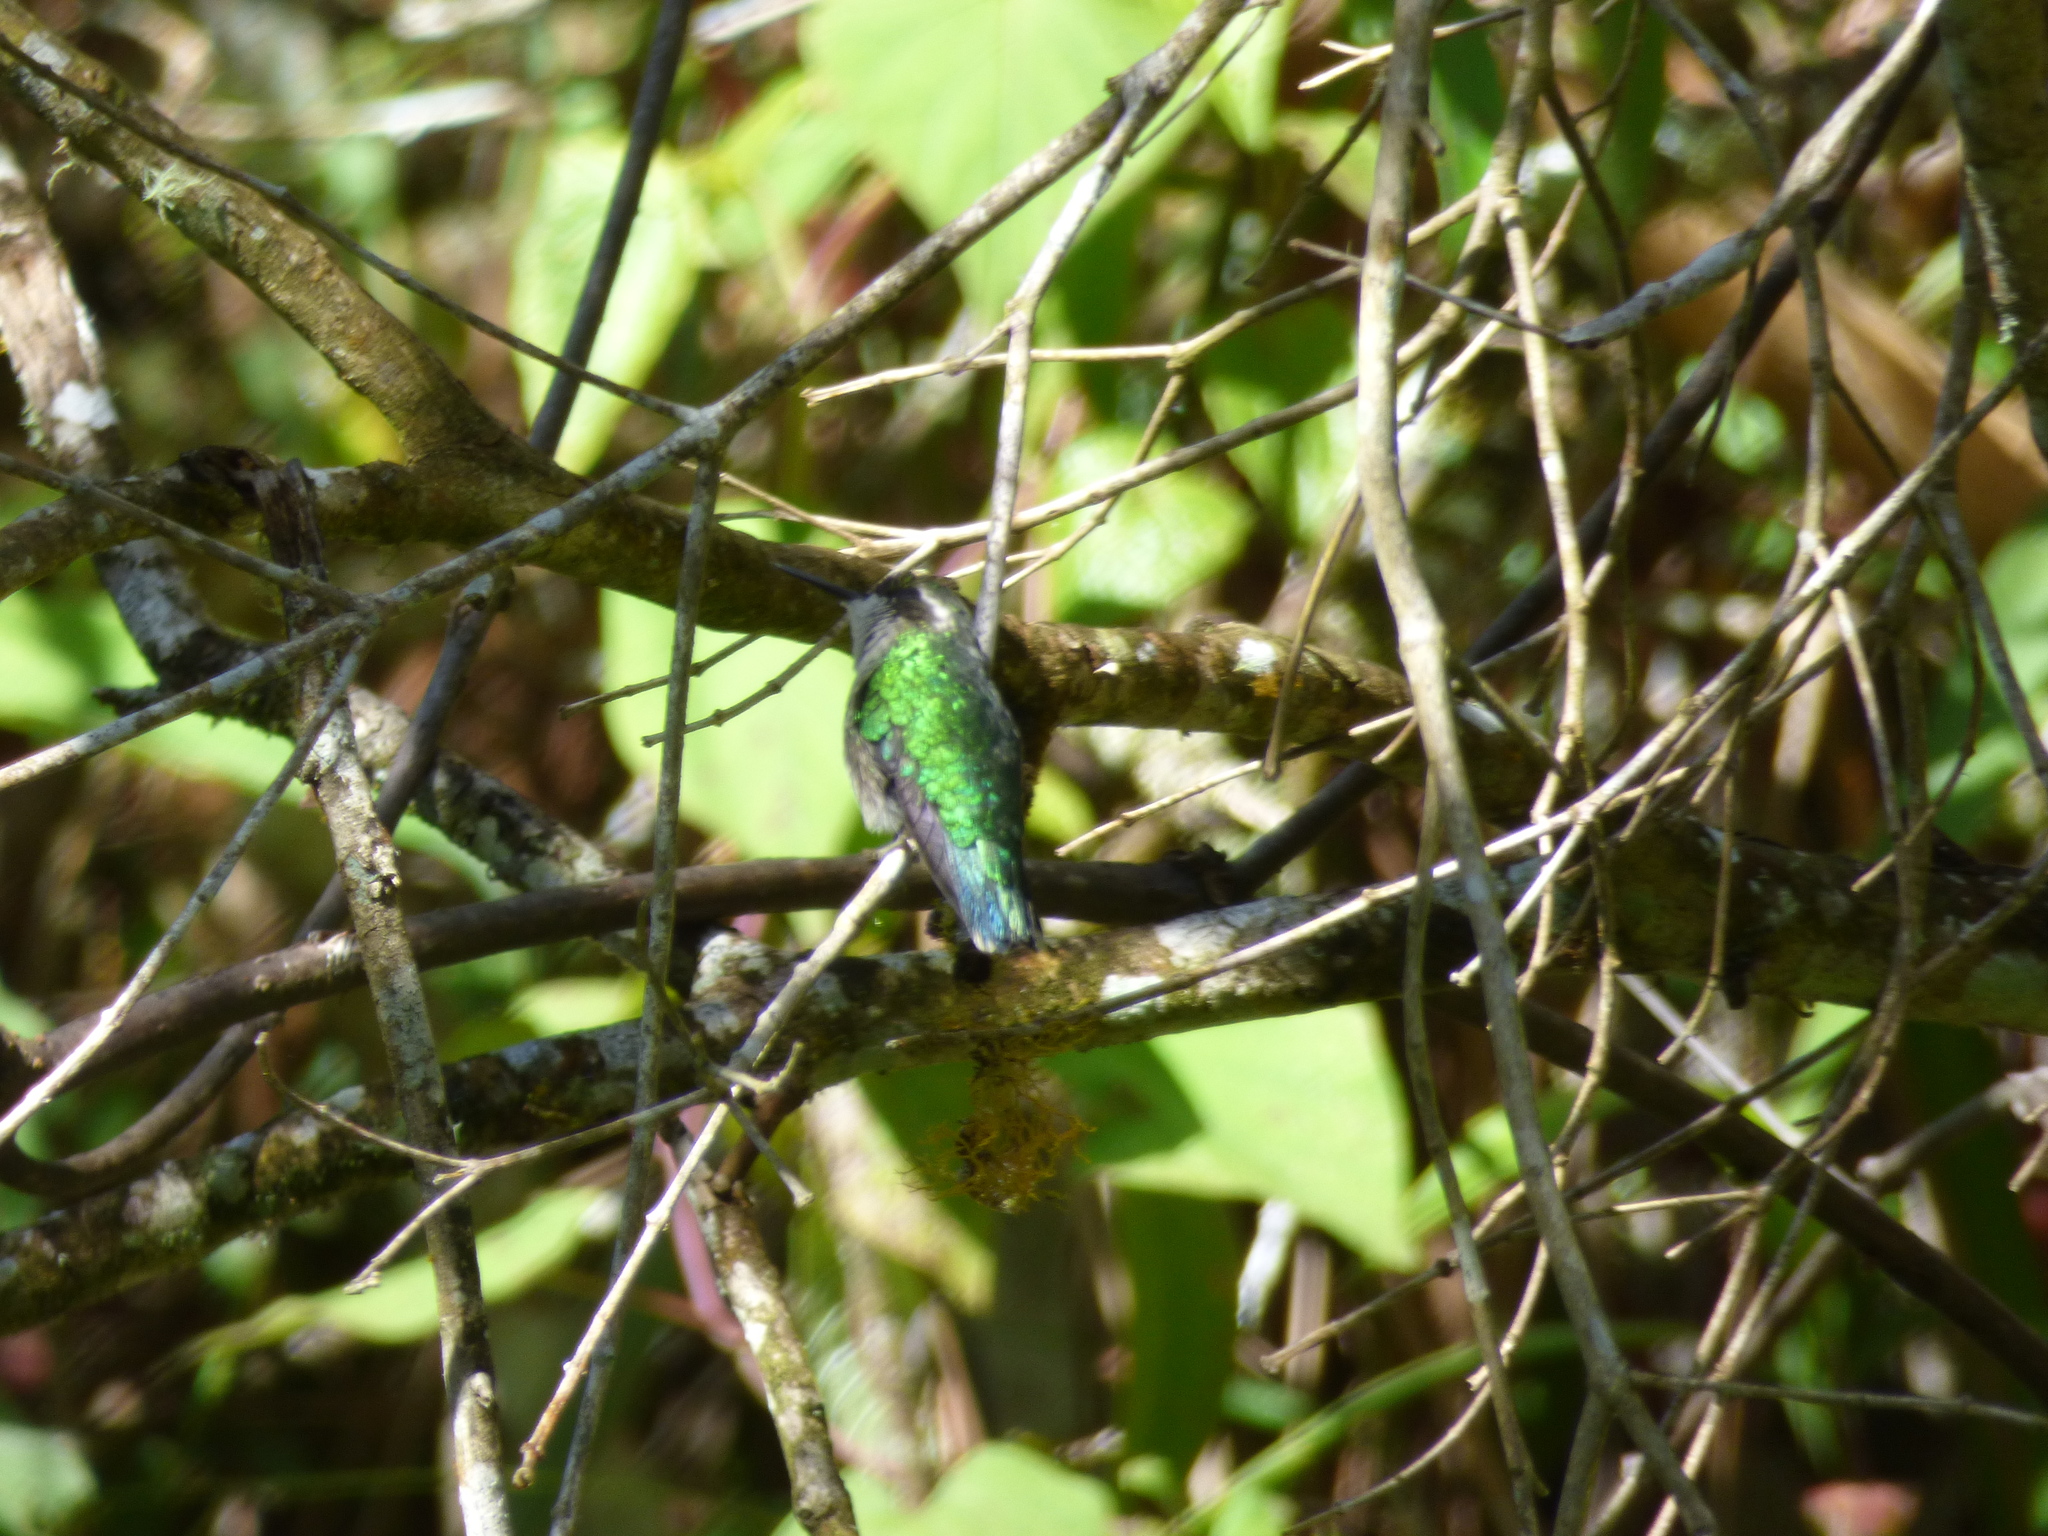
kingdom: Animalia
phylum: Chordata
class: Aves
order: Apodiformes
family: Trochilidae
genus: Chlorostilbon
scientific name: Chlorostilbon melanorhynchus
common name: Western emerald
